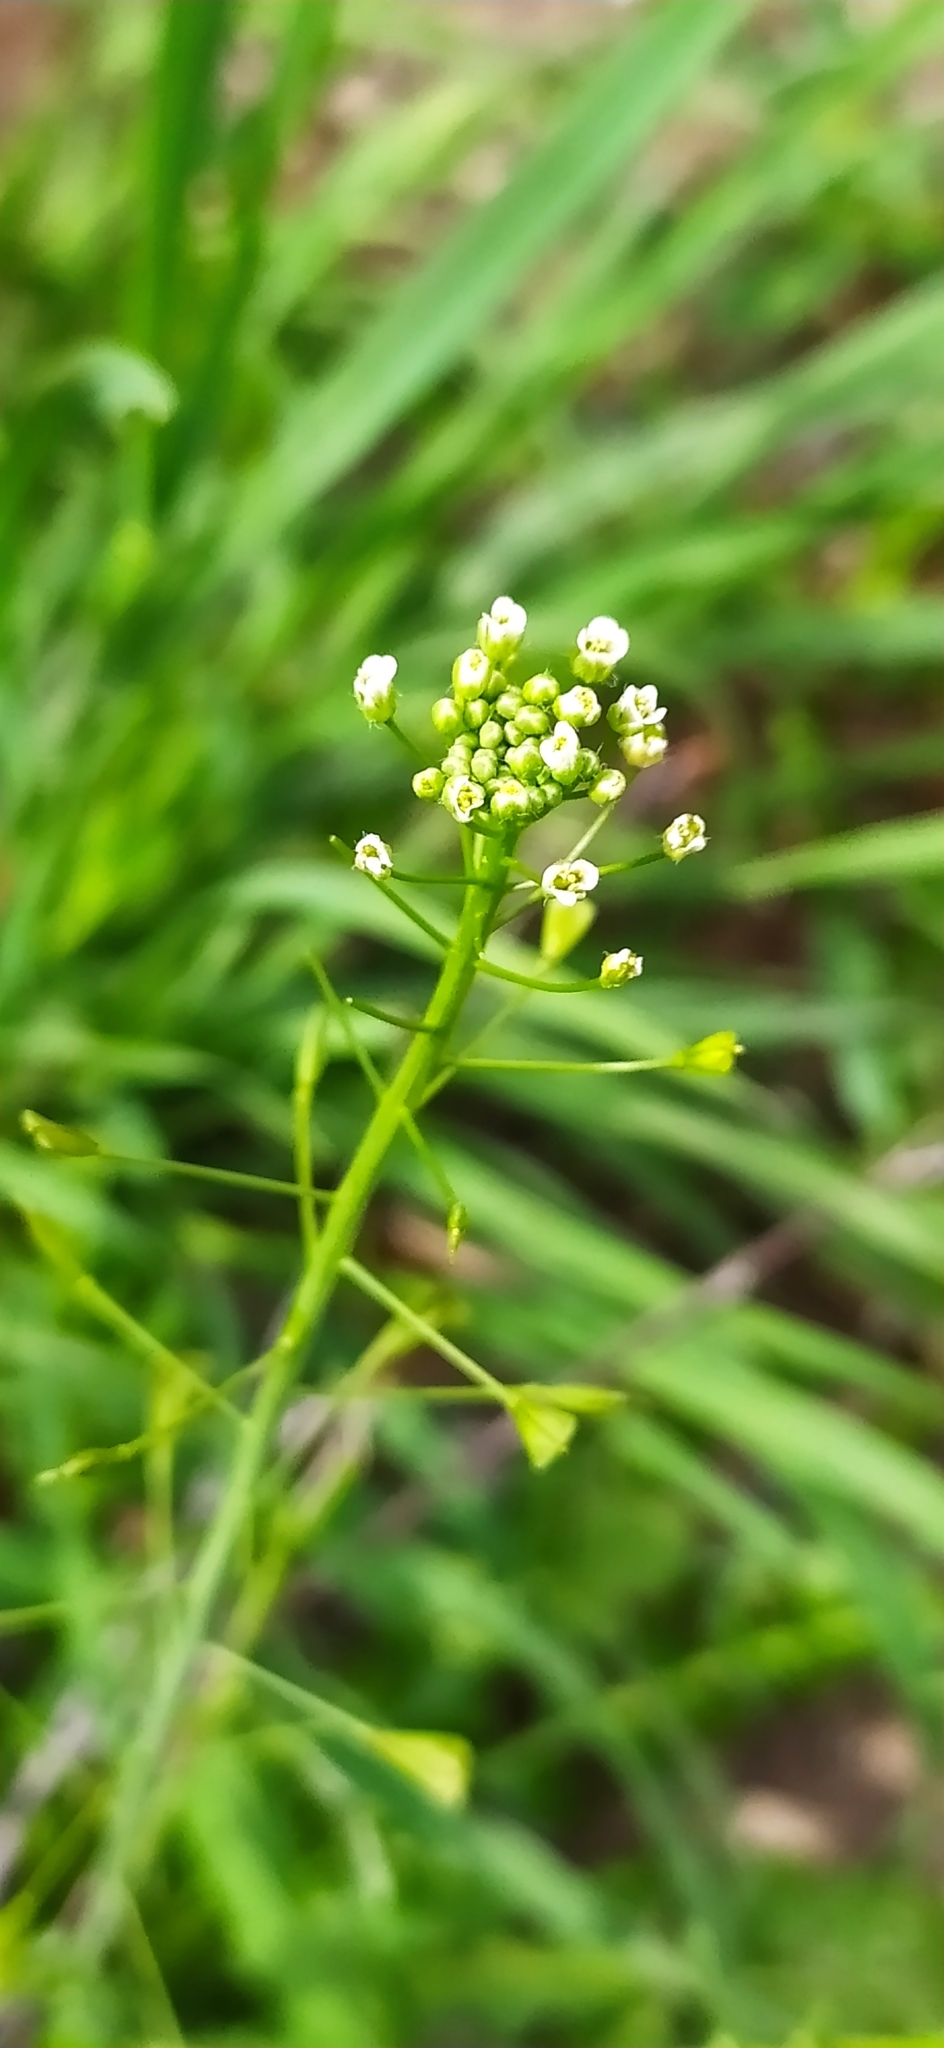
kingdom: Plantae
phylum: Tracheophyta
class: Magnoliopsida
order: Brassicales
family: Brassicaceae
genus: Capsella
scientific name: Capsella bursa-pastoris
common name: Shepherd's purse
